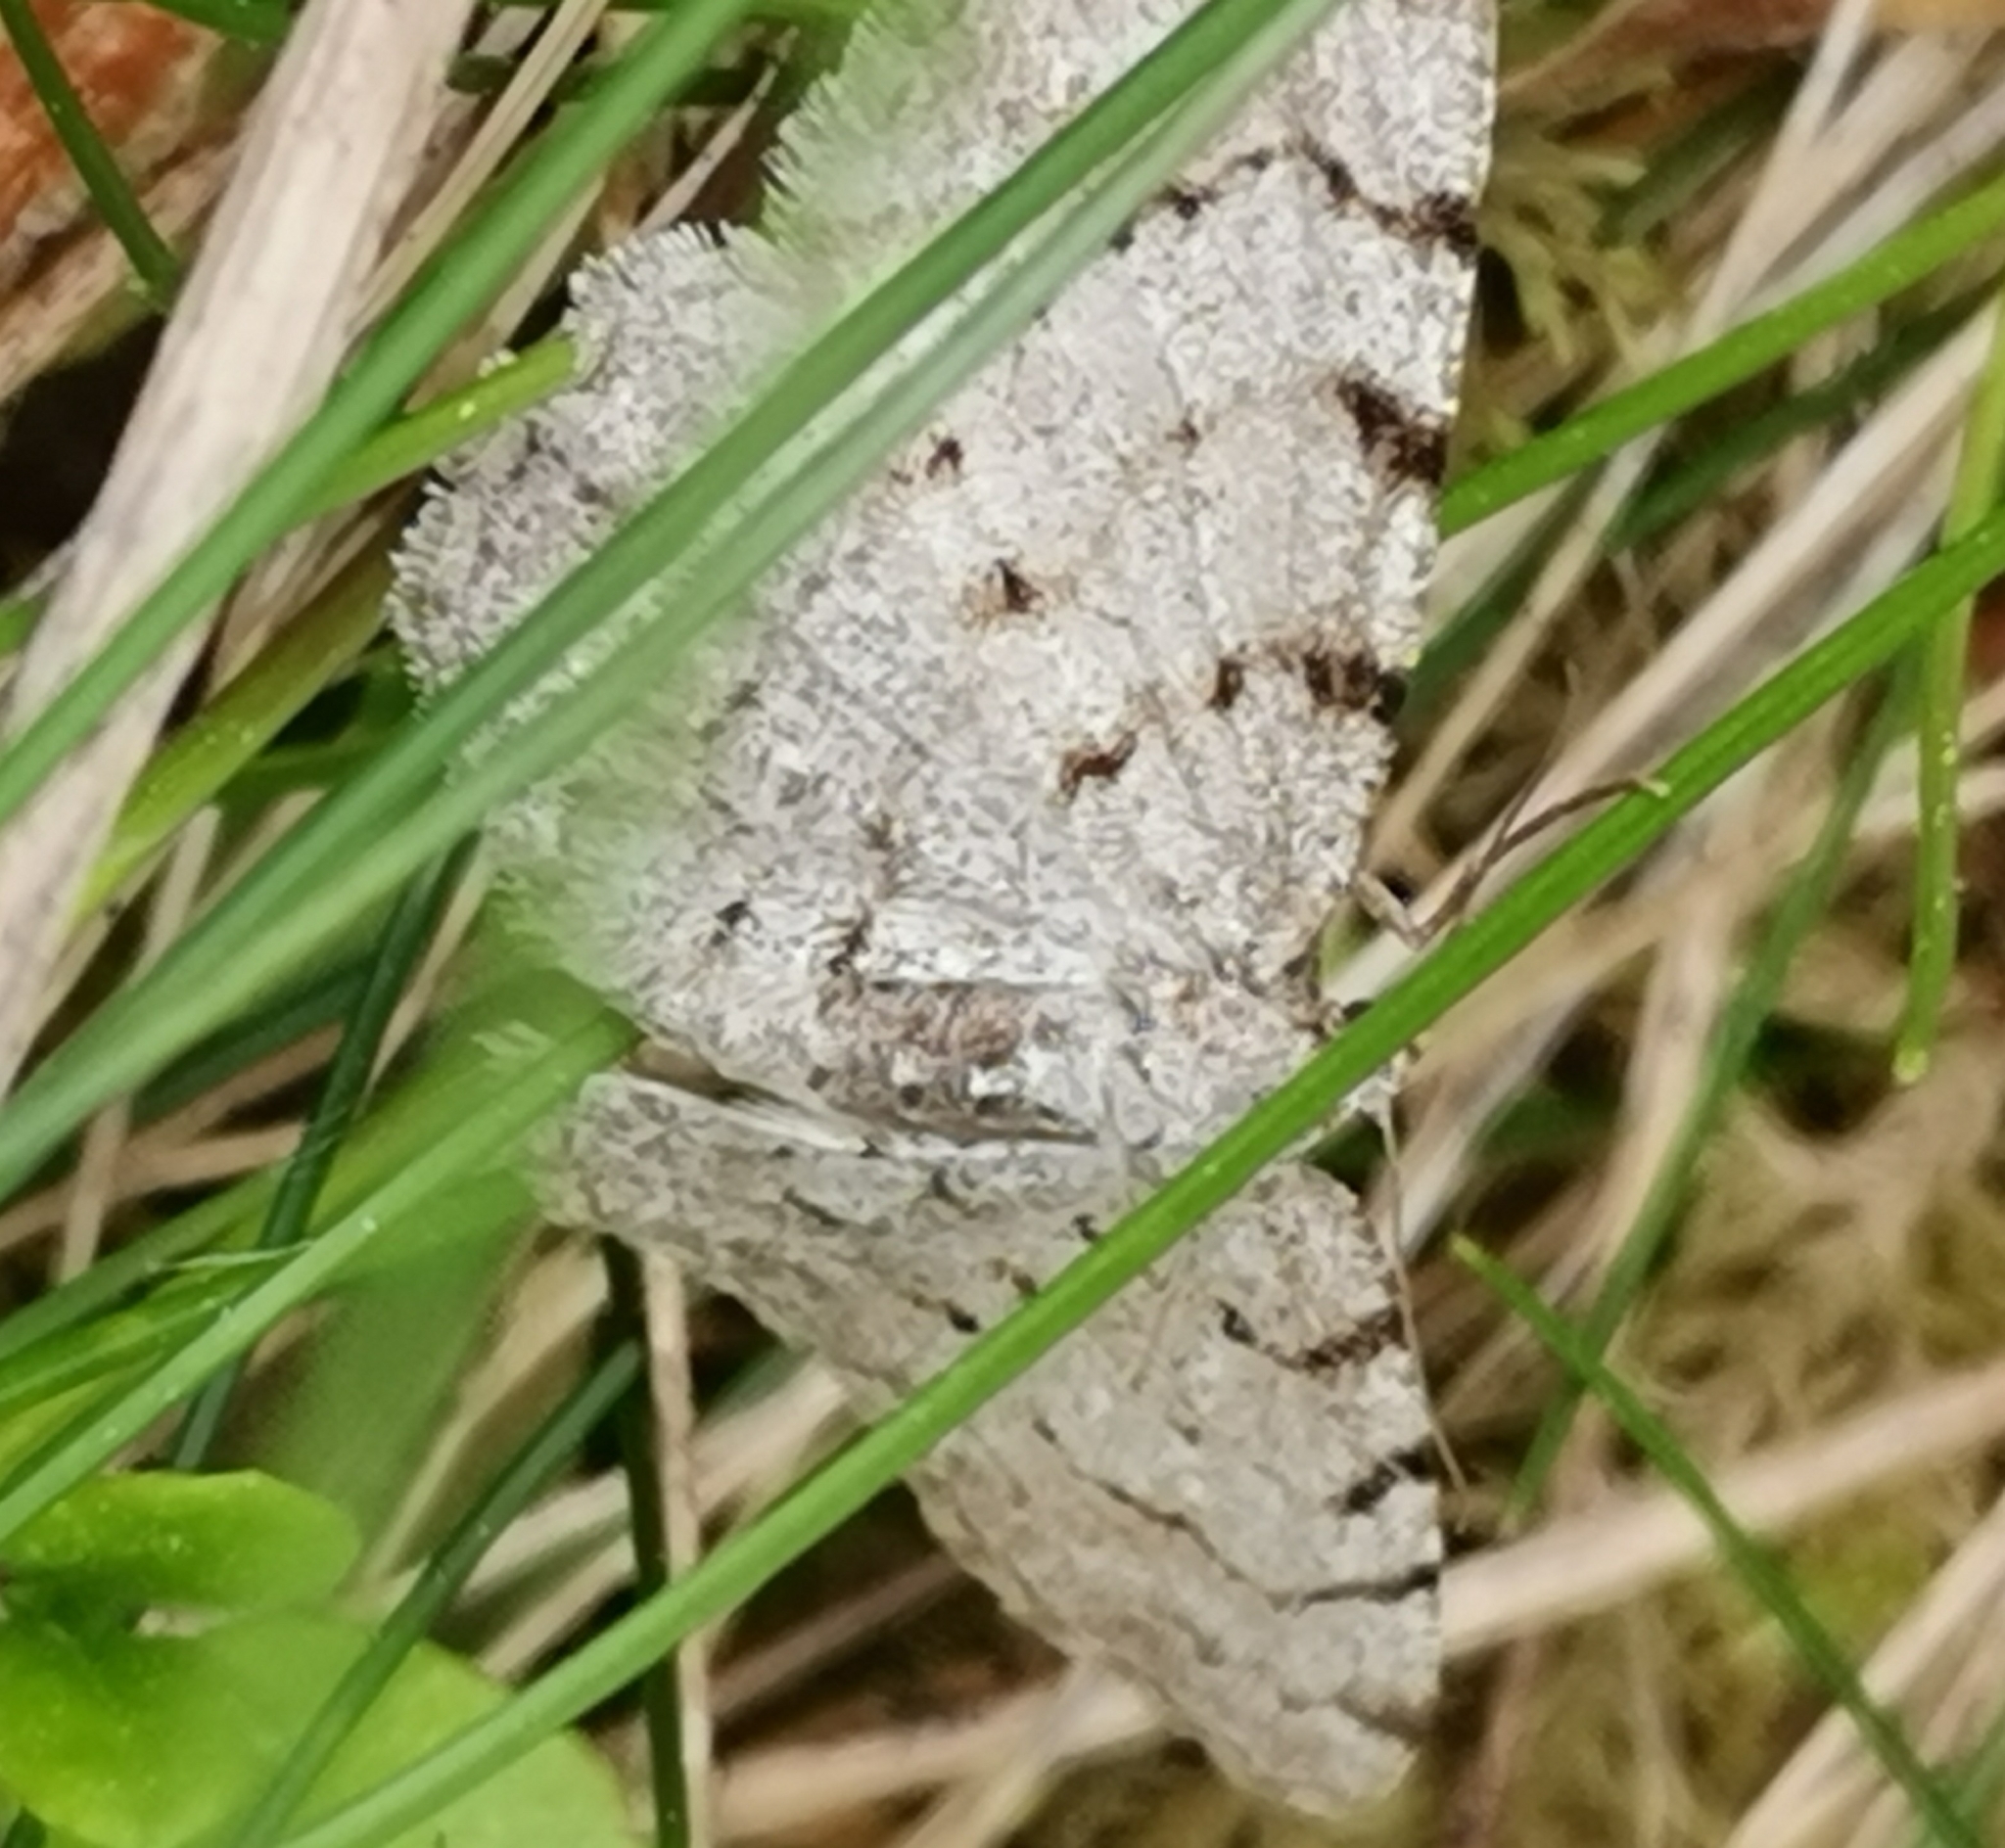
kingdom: Animalia
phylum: Arthropoda
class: Insecta
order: Lepidoptera
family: Geometridae
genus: Aethalura
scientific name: Aethalura punctulata
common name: Grey birch
